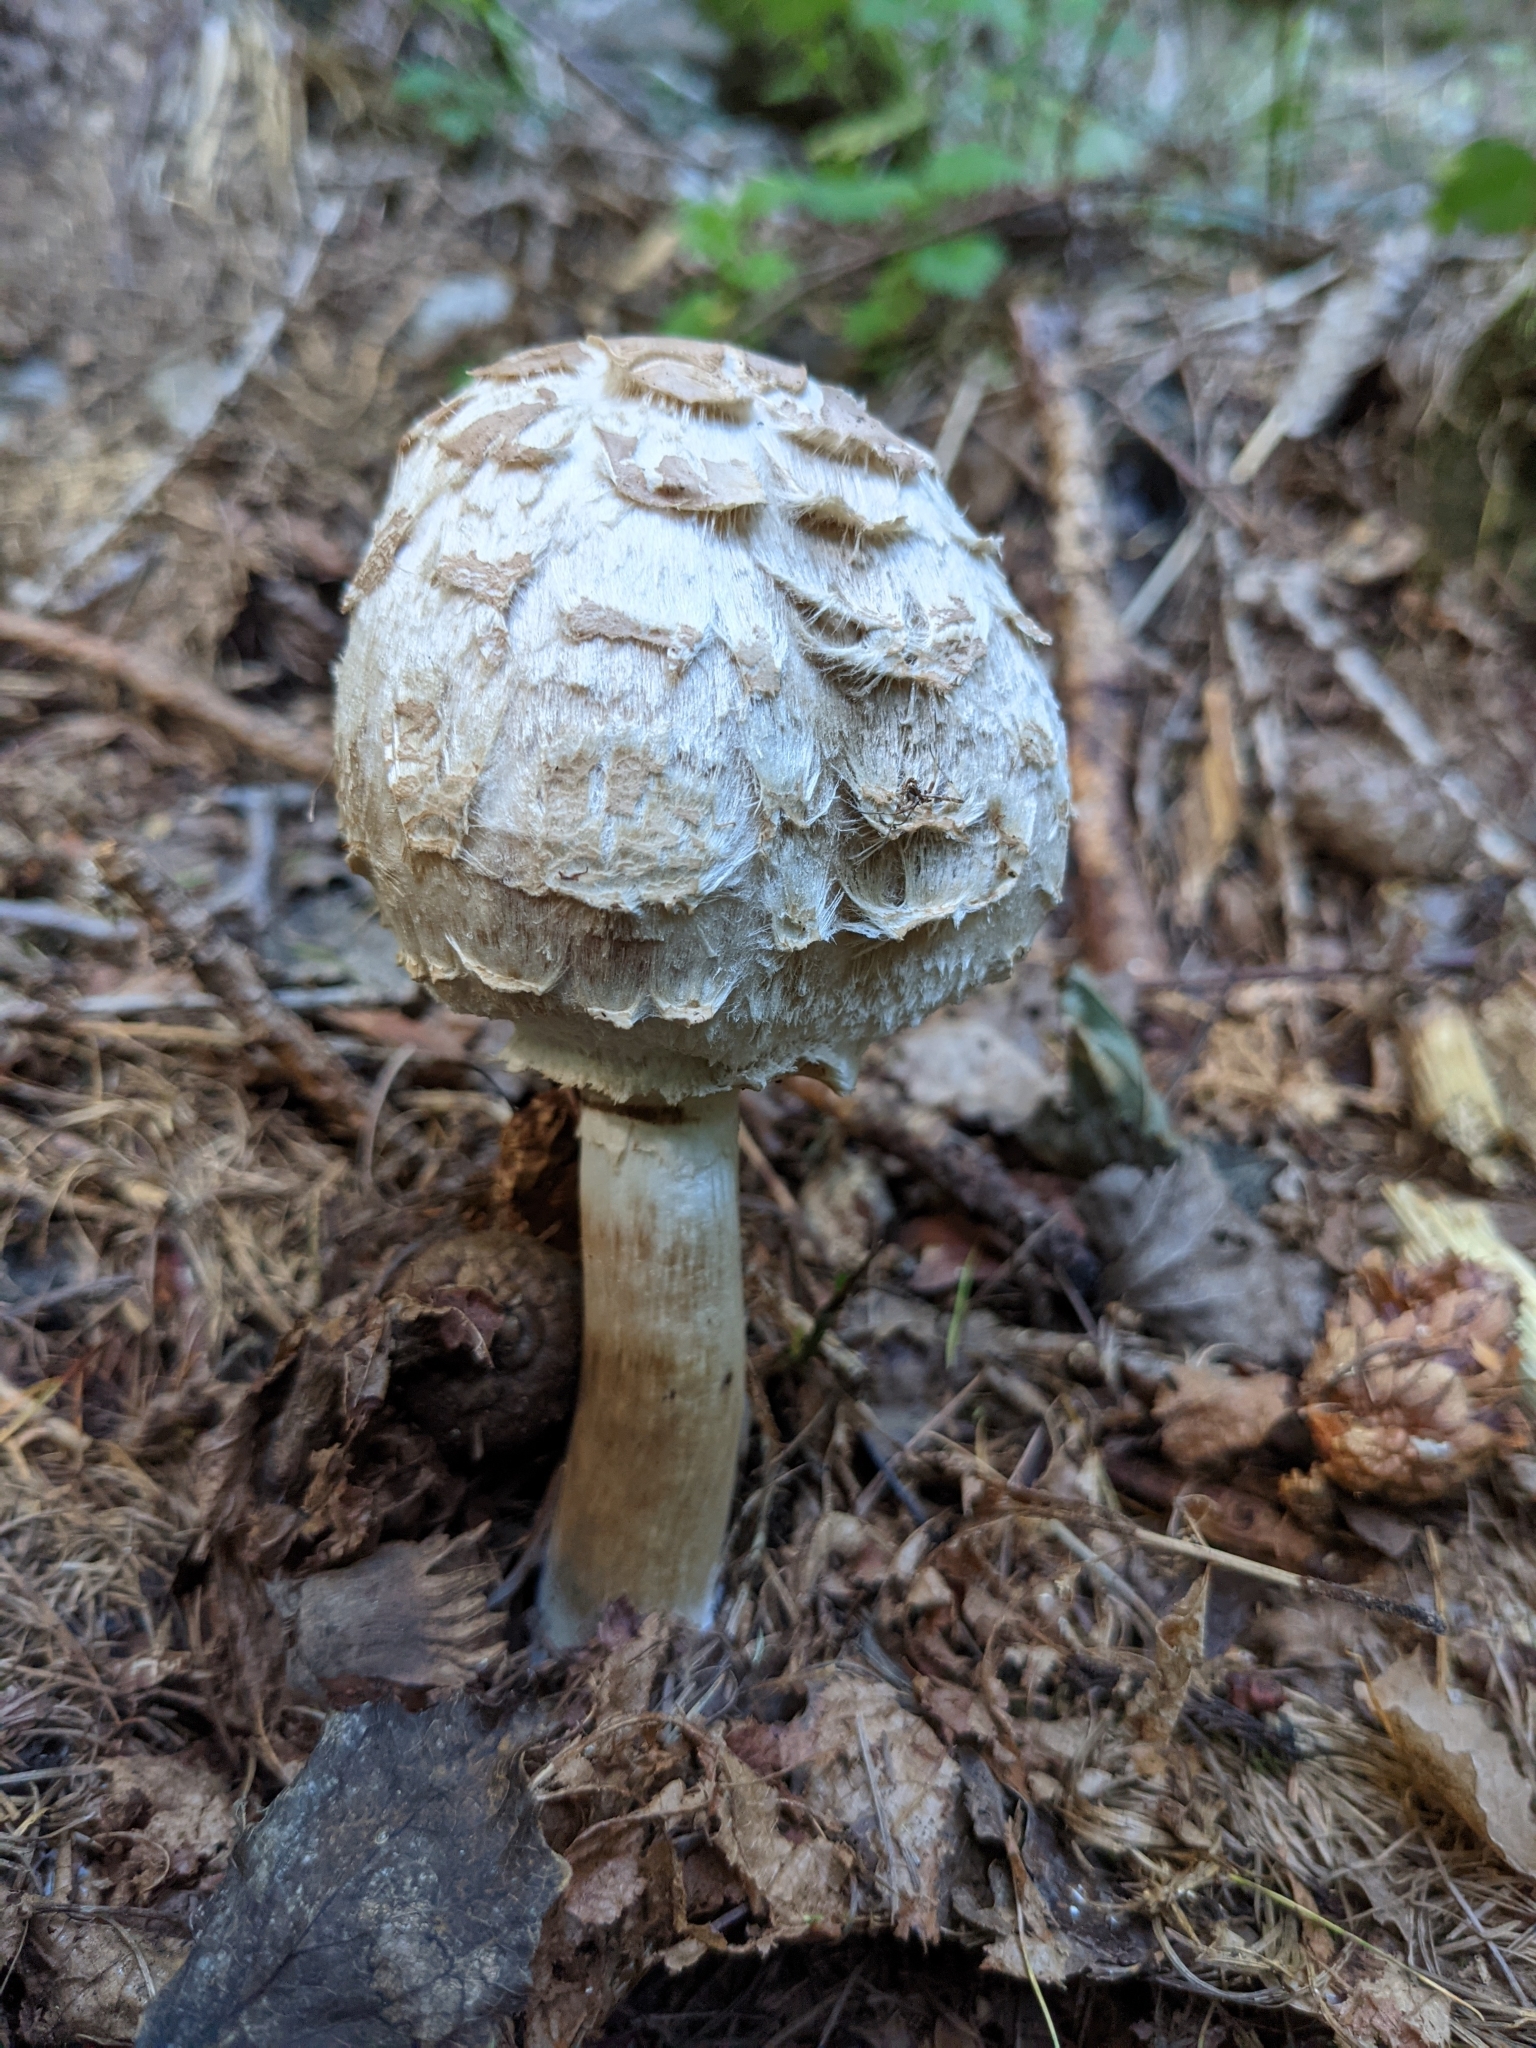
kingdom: Fungi
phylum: Basidiomycota
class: Agaricomycetes
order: Agaricales
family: Agaricaceae
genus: Chlorophyllum
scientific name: Chlorophyllum rhacodes
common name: Shaggy parasol
